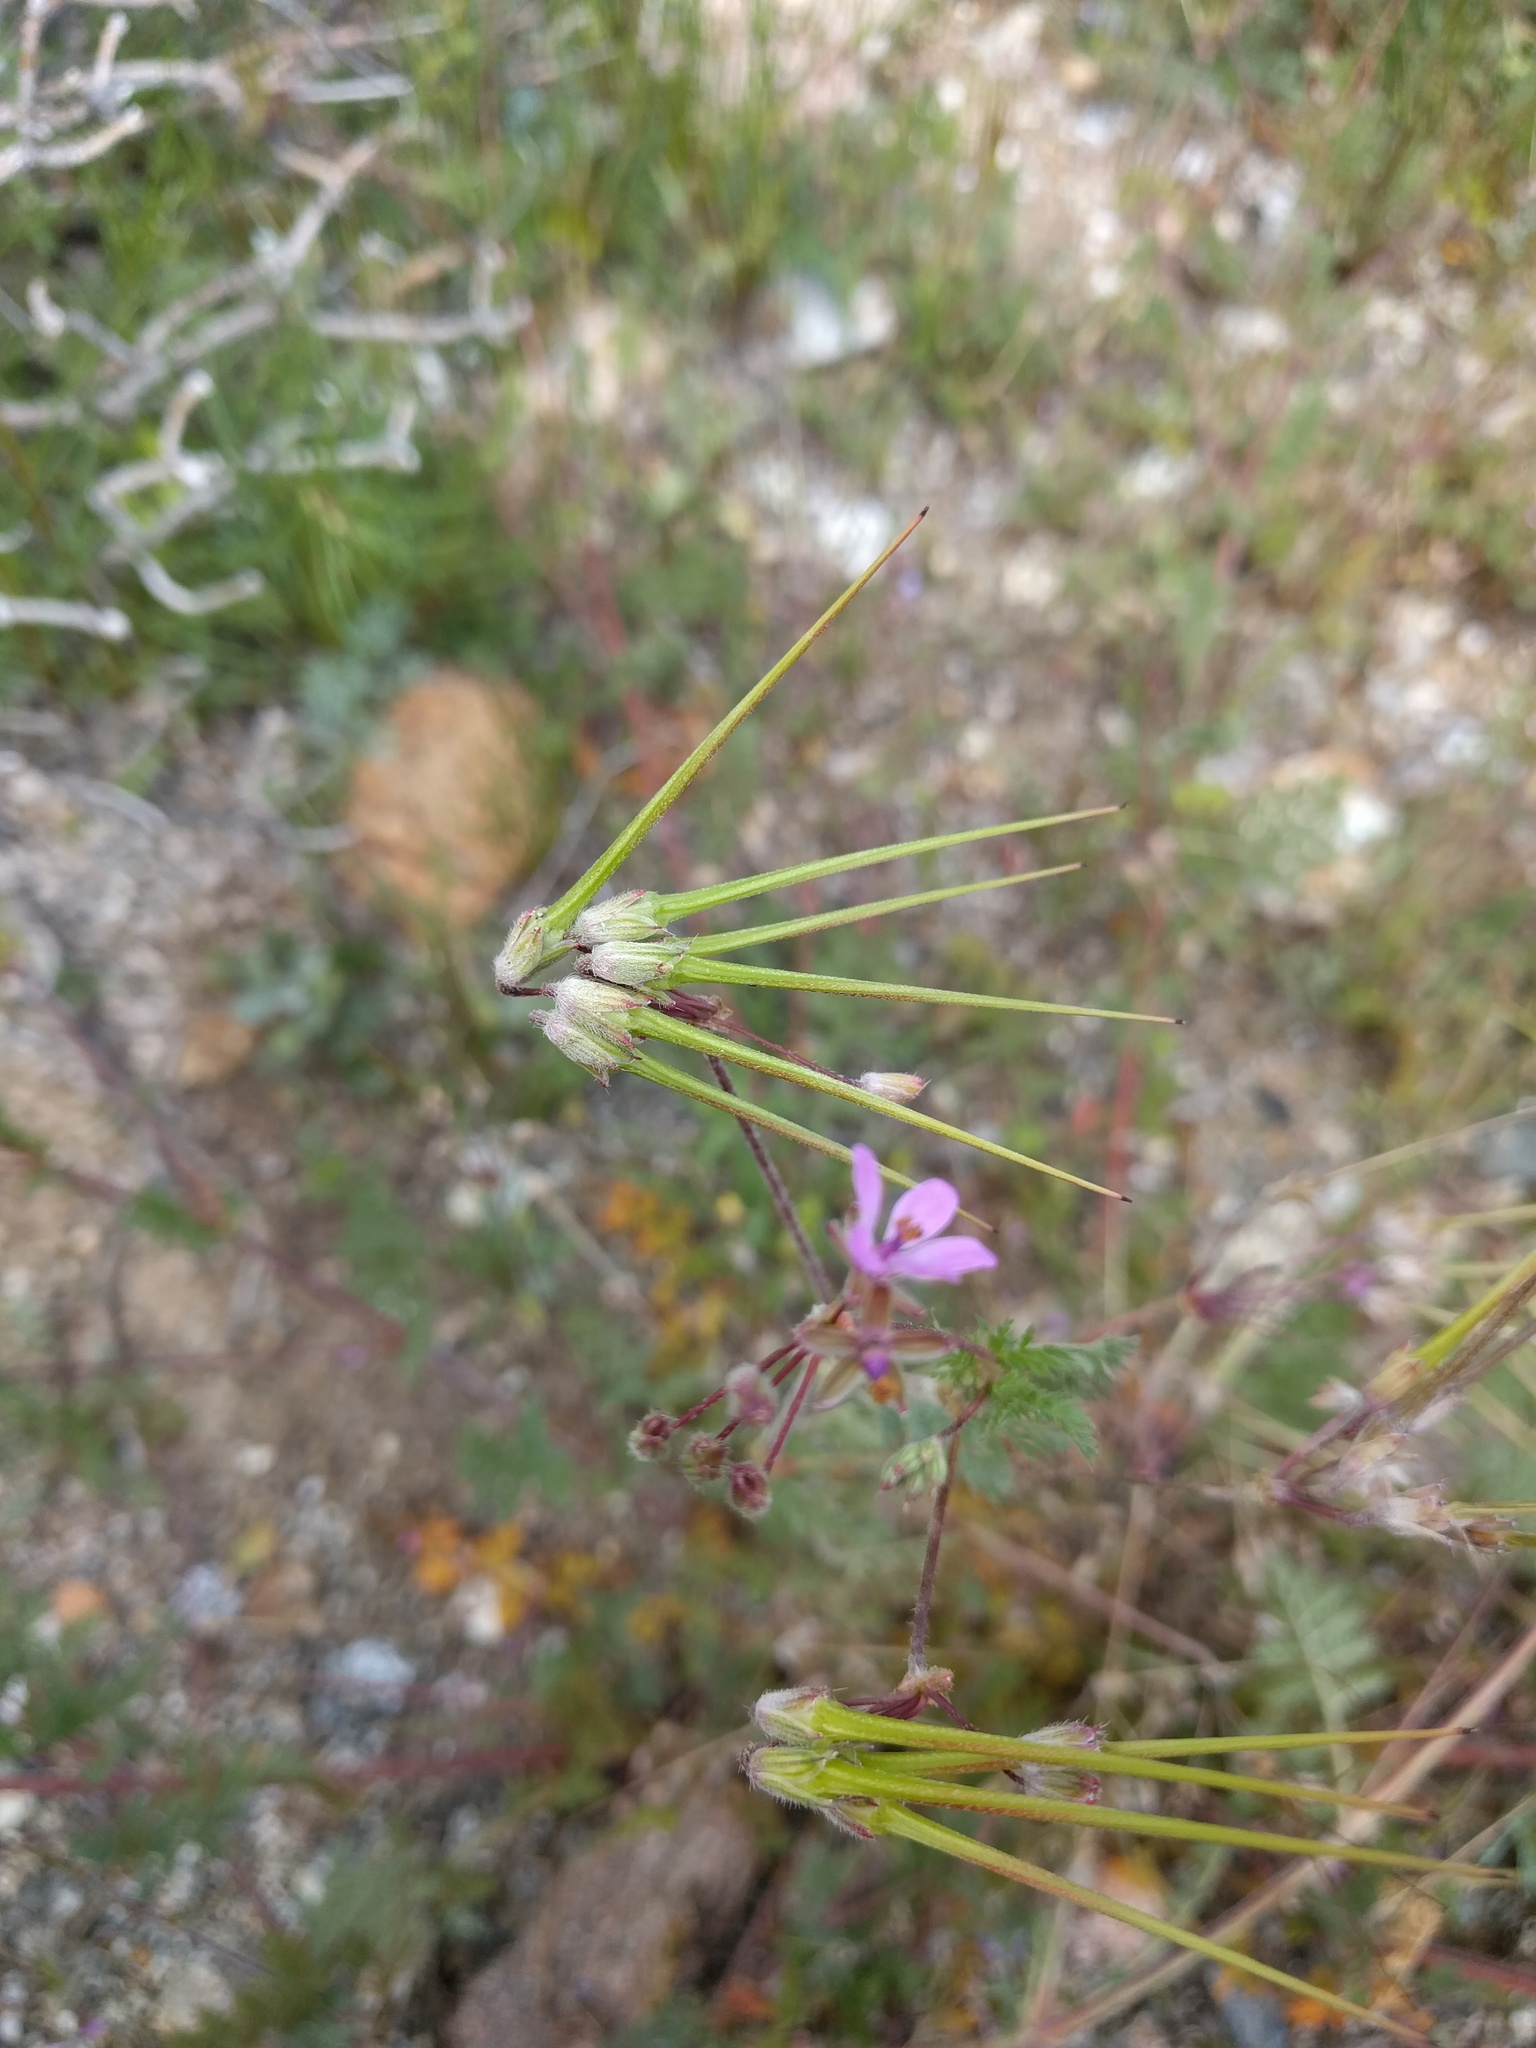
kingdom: Plantae
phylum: Tracheophyta
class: Magnoliopsida
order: Geraniales
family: Geraniaceae
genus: Erodium
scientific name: Erodium cicutarium
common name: Common stork's-bill
